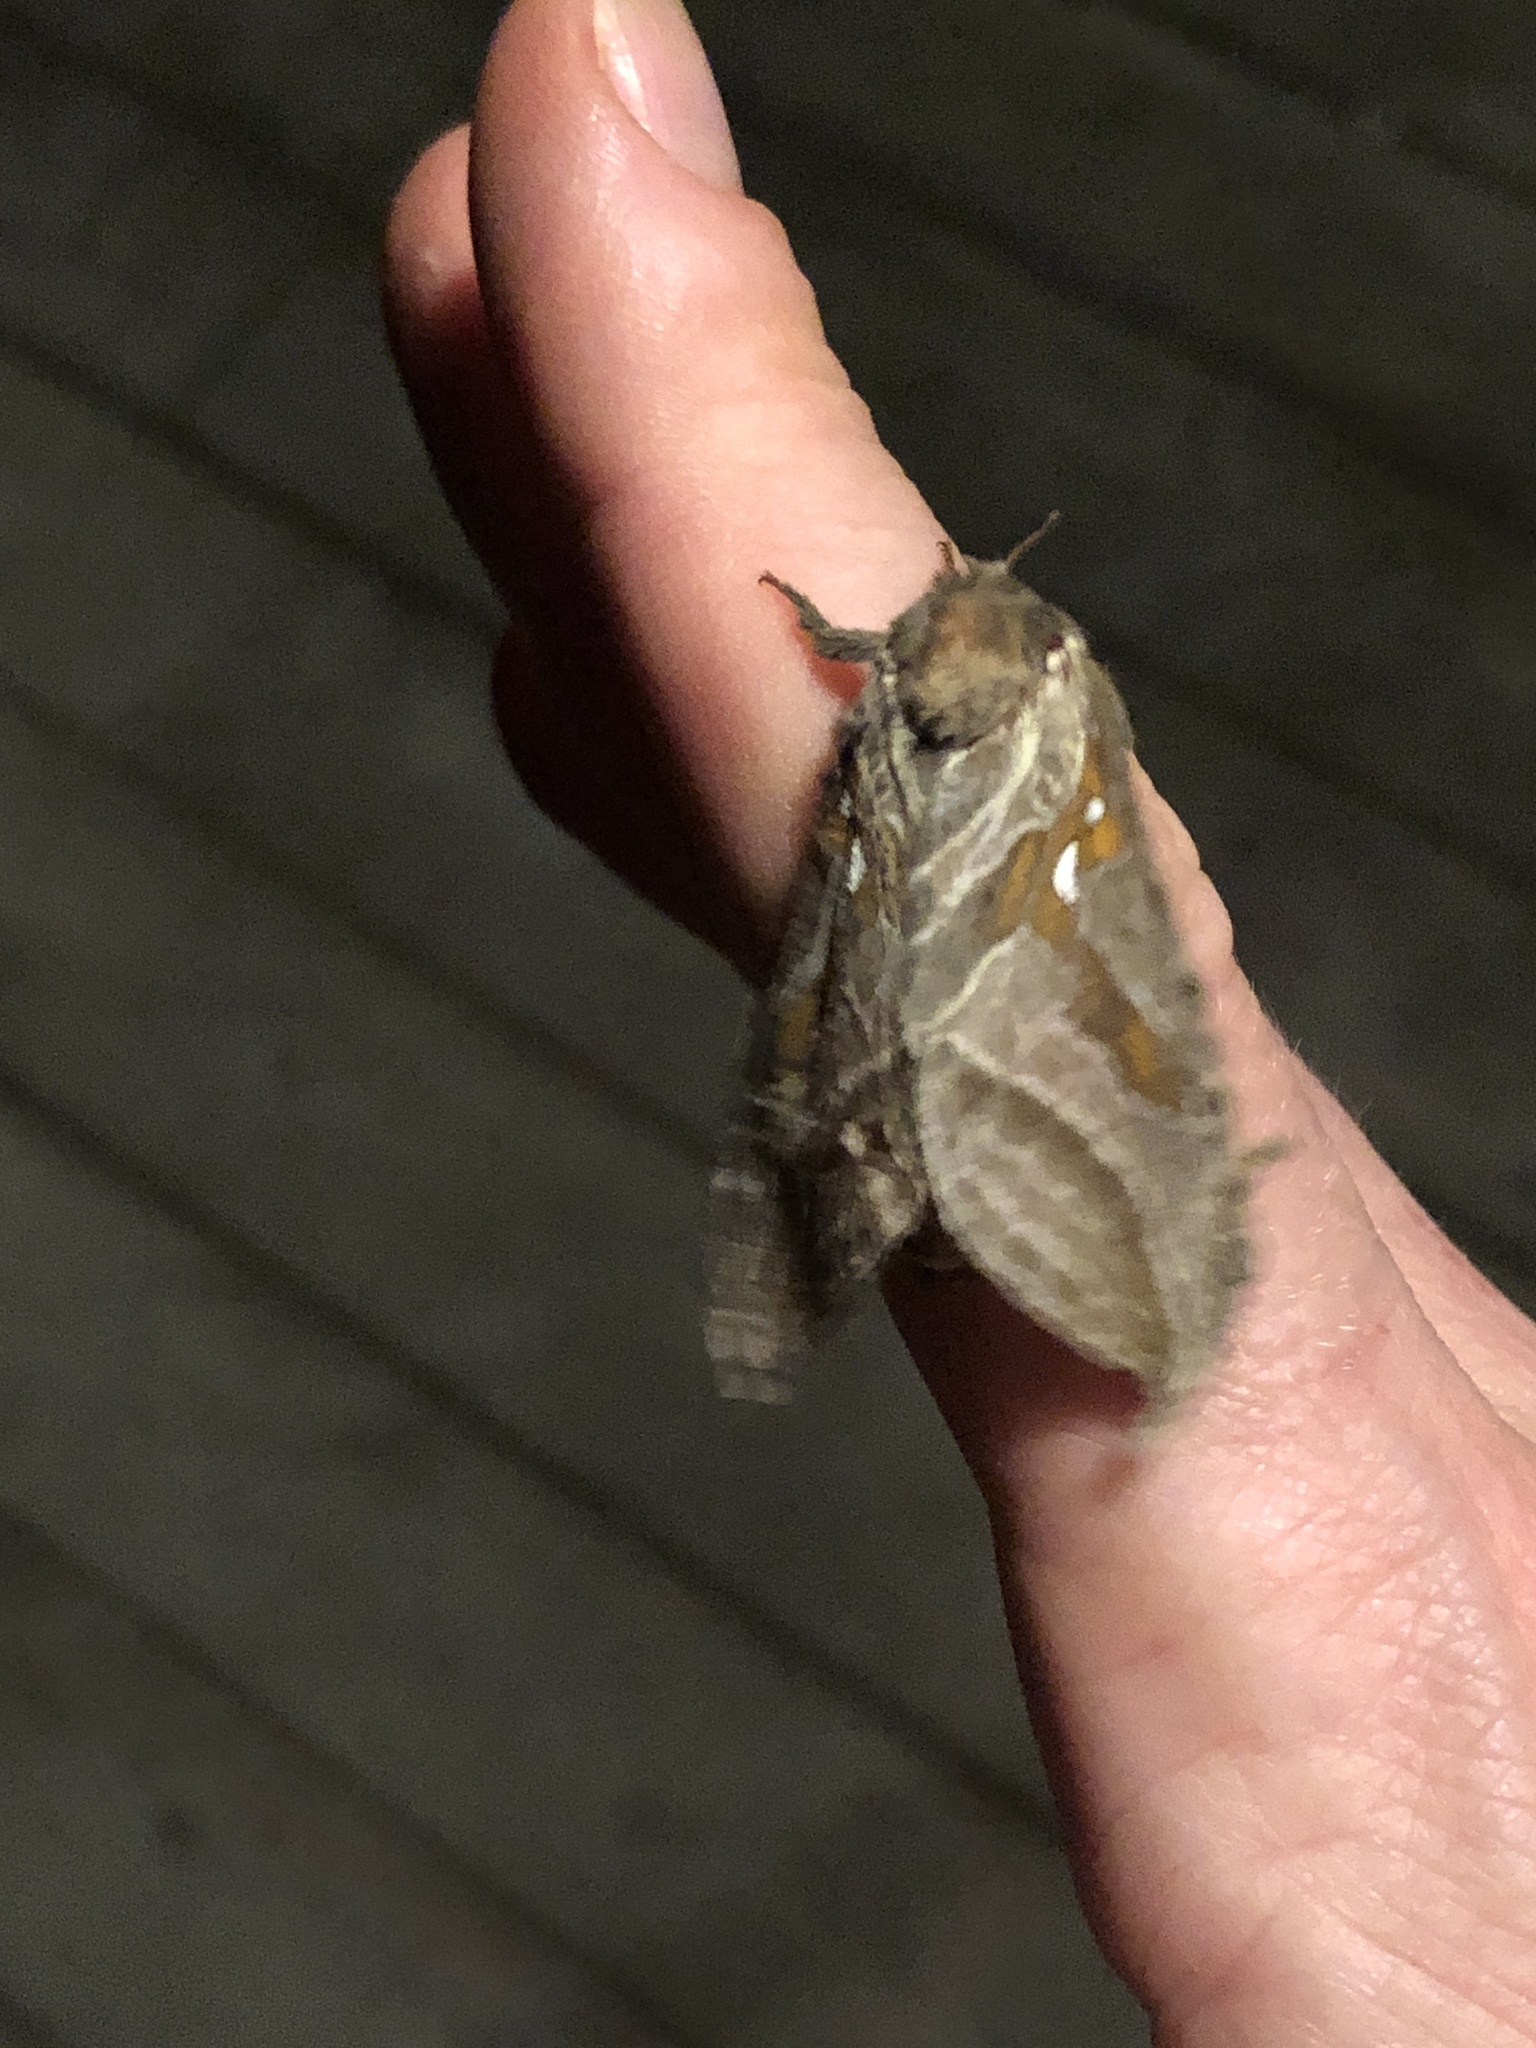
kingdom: Animalia
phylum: Arthropoda
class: Insecta
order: Lepidoptera
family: Hepialidae
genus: Sthenopis
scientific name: Sthenopis argenteomaculatus
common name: Silver-spotted ghost moth
